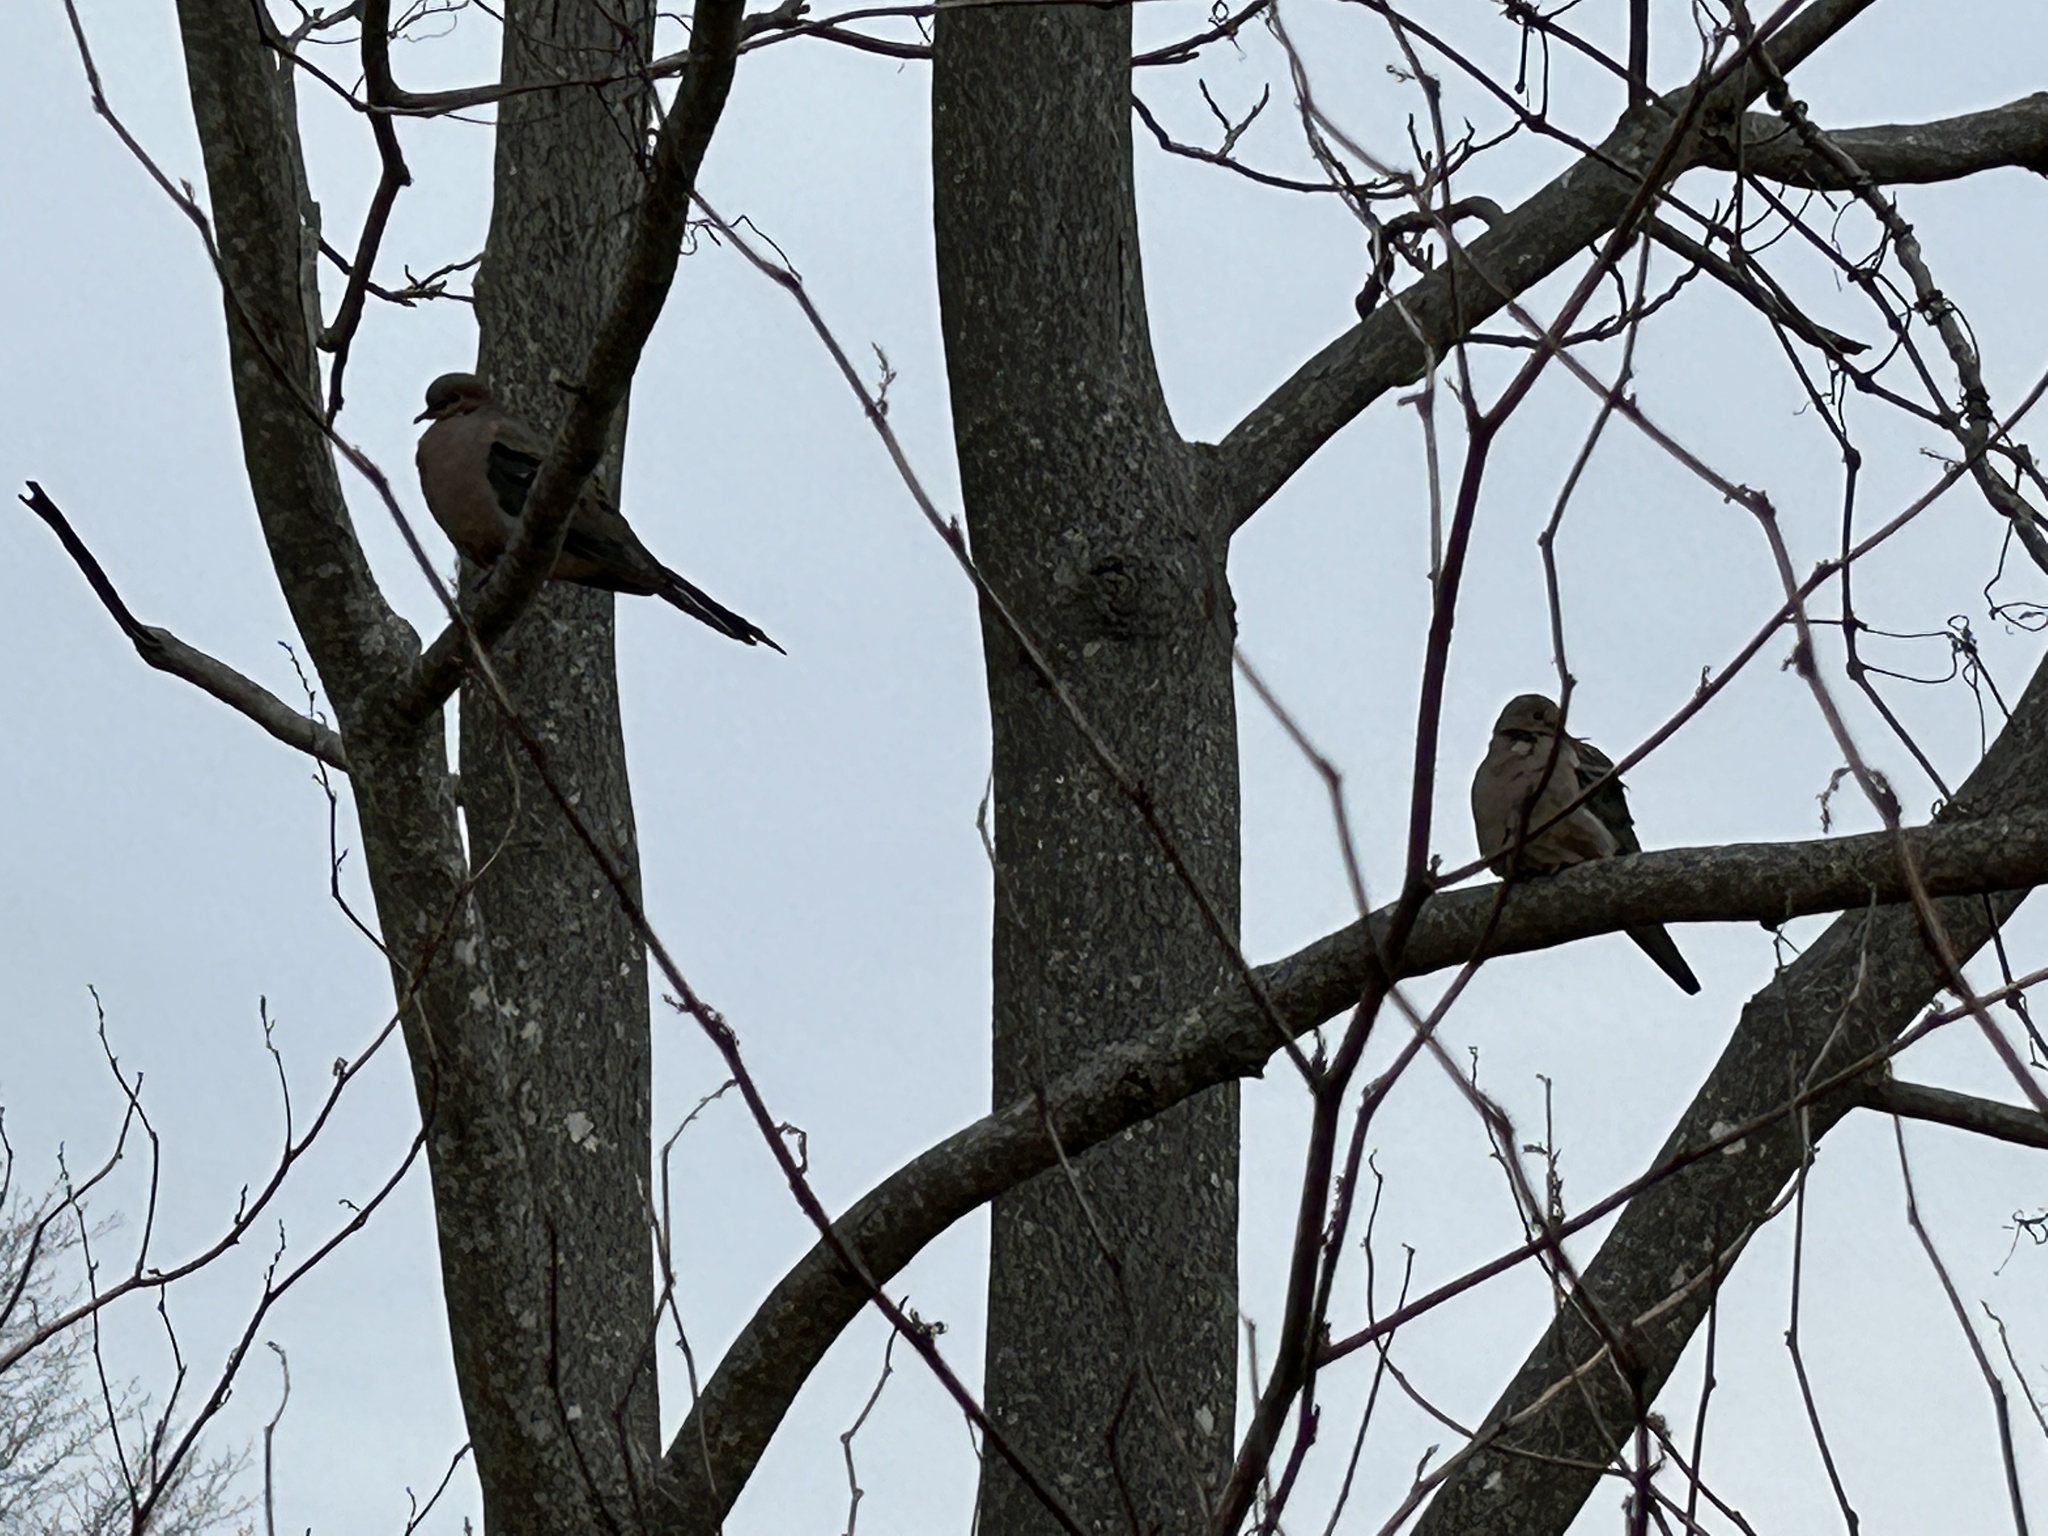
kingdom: Animalia
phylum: Chordata
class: Aves
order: Columbiformes
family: Columbidae
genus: Zenaida
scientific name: Zenaida macroura
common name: Mourning dove
